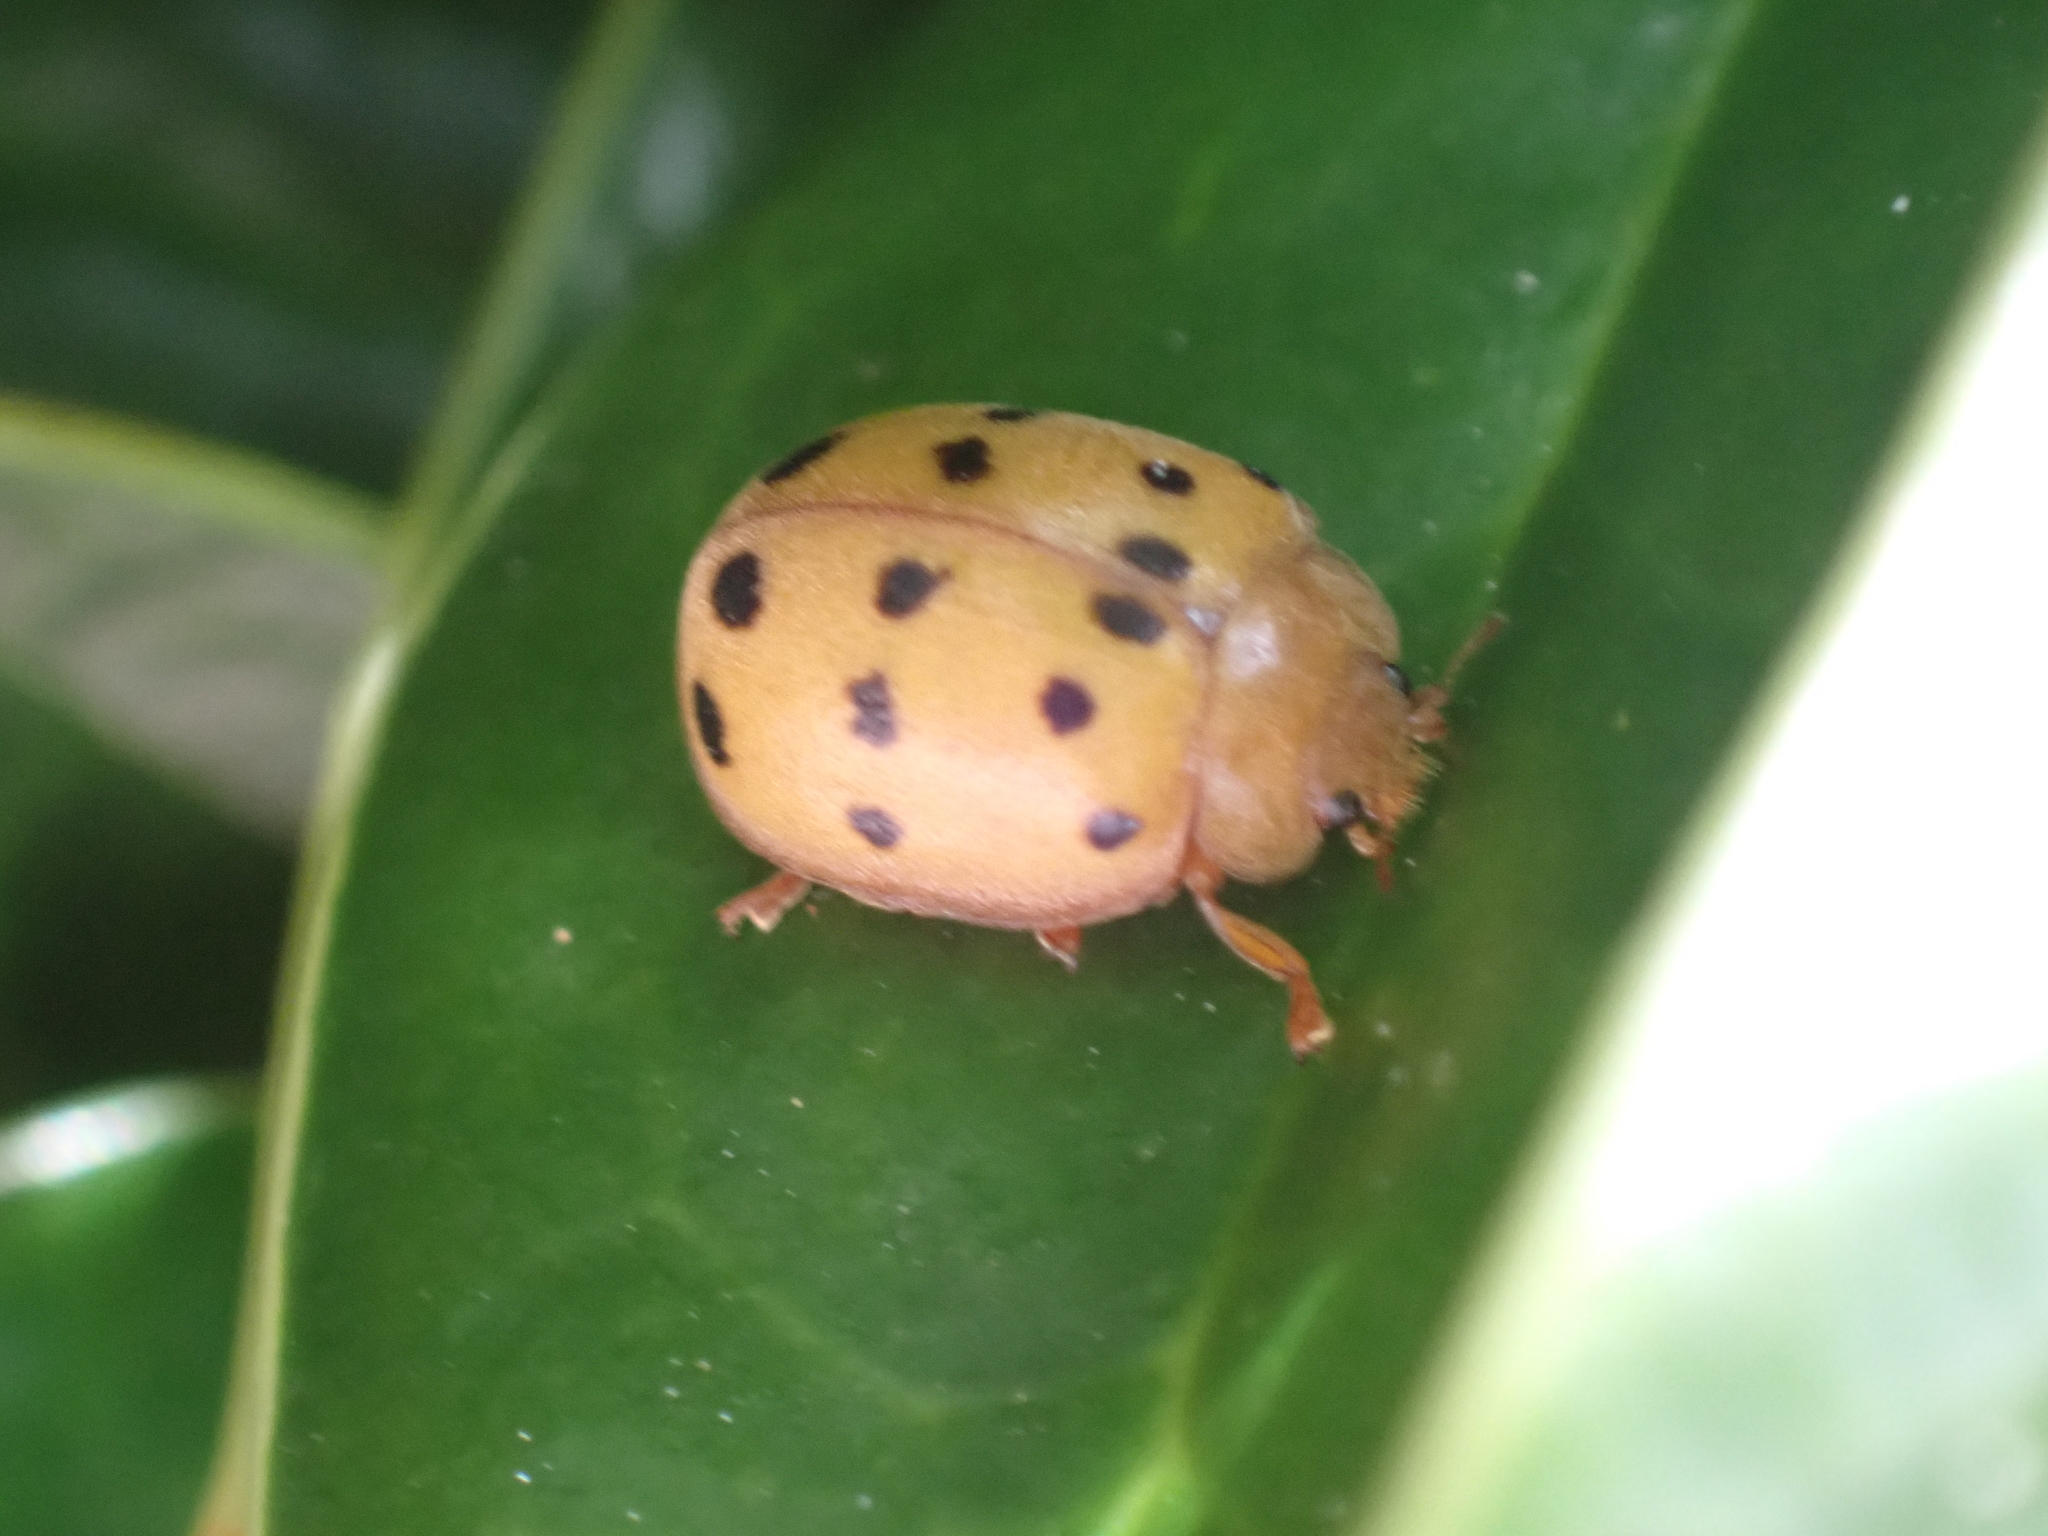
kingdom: Animalia
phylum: Arthropoda
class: Insecta
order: Coleoptera
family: Coccinellidae
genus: Epilachna
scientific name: Epilachna varivestis
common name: Ladybird beetle
